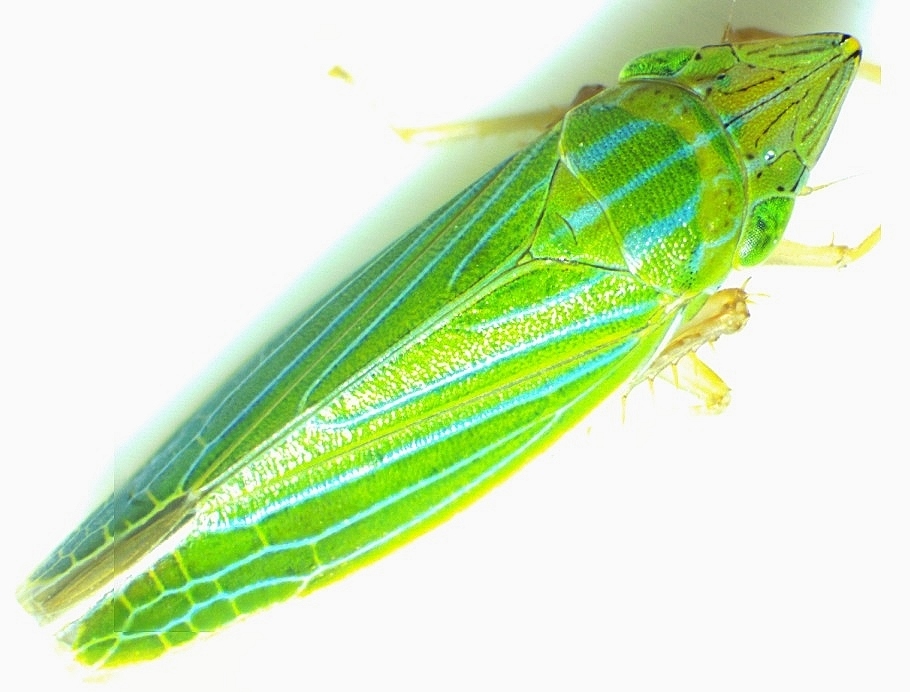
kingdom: Animalia
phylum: Arthropoda
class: Insecta
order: Hemiptera
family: Cicadellidae
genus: Draeculacephala
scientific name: Draeculacephala mollipes
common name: Watercress sharpshooter
